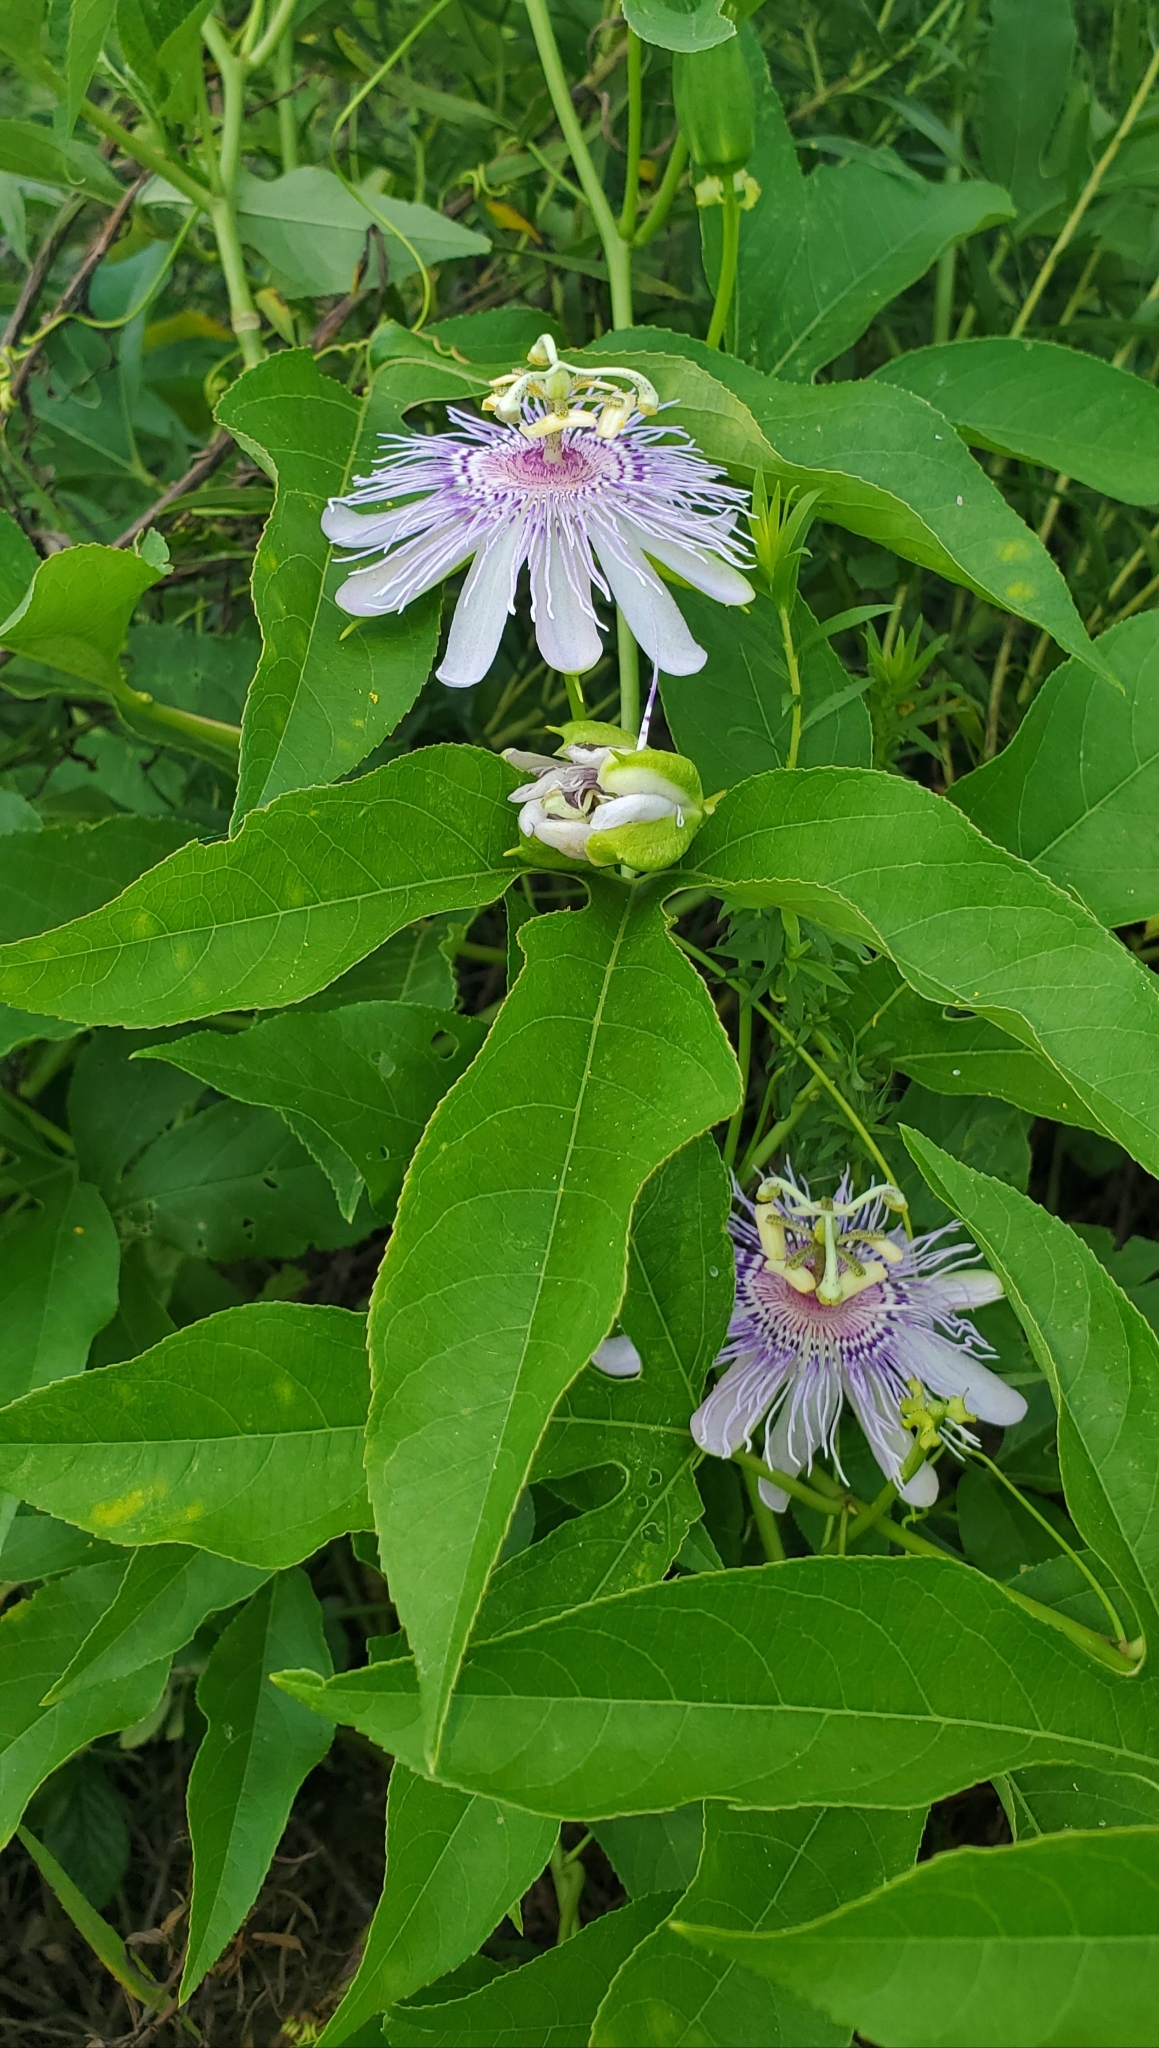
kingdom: Plantae
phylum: Tracheophyta
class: Magnoliopsida
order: Malpighiales
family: Passifloraceae
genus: Passiflora
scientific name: Passiflora incarnata
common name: Apricot-vine
